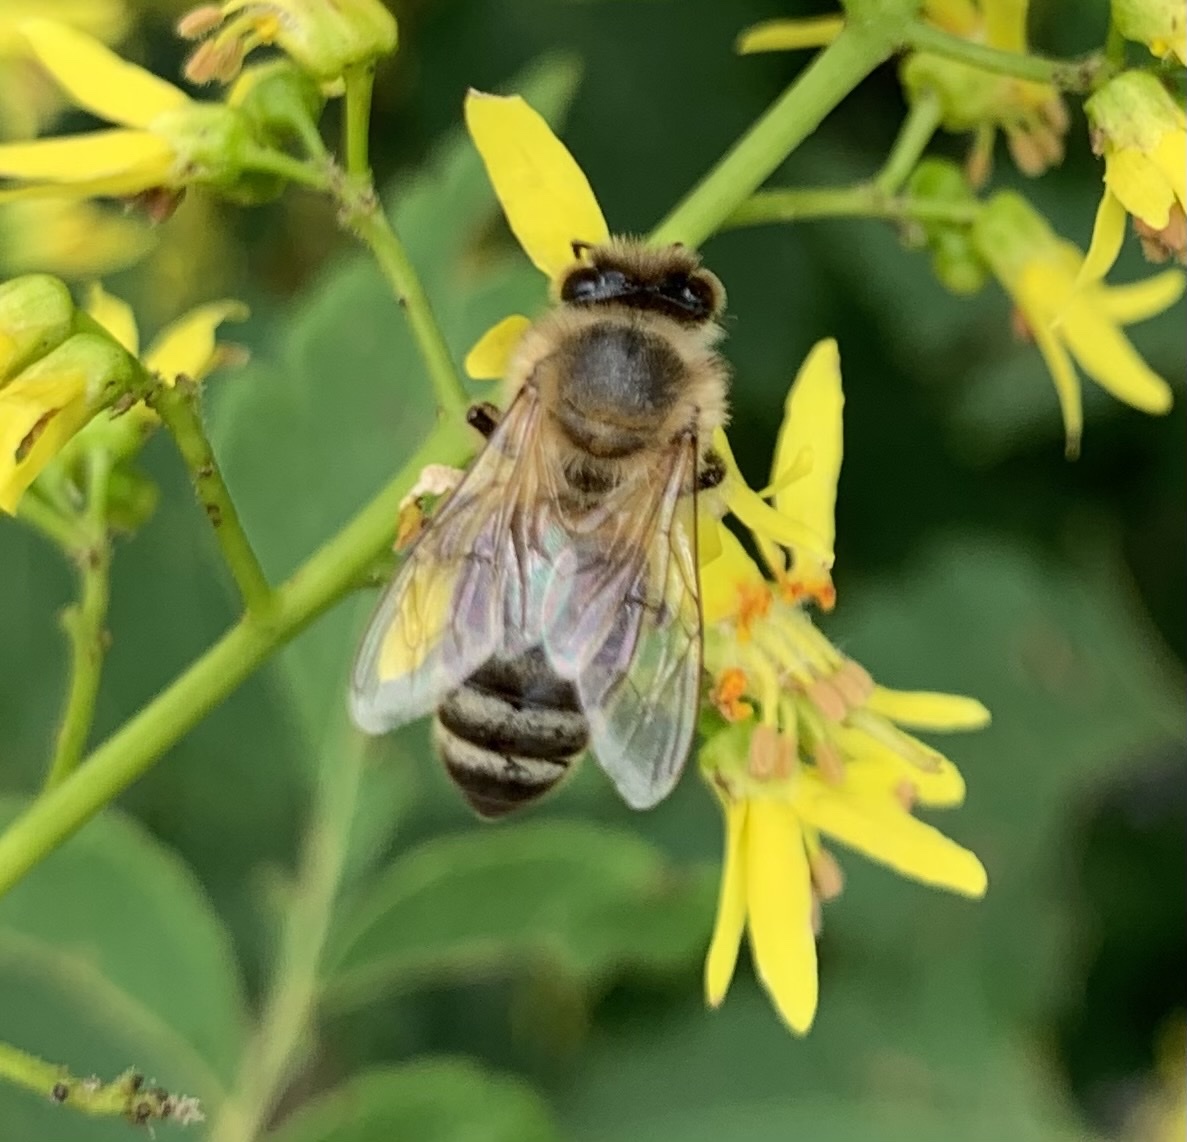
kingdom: Animalia
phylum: Arthropoda
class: Insecta
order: Hymenoptera
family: Apidae
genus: Apis
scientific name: Apis mellifera
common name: Honey bee
